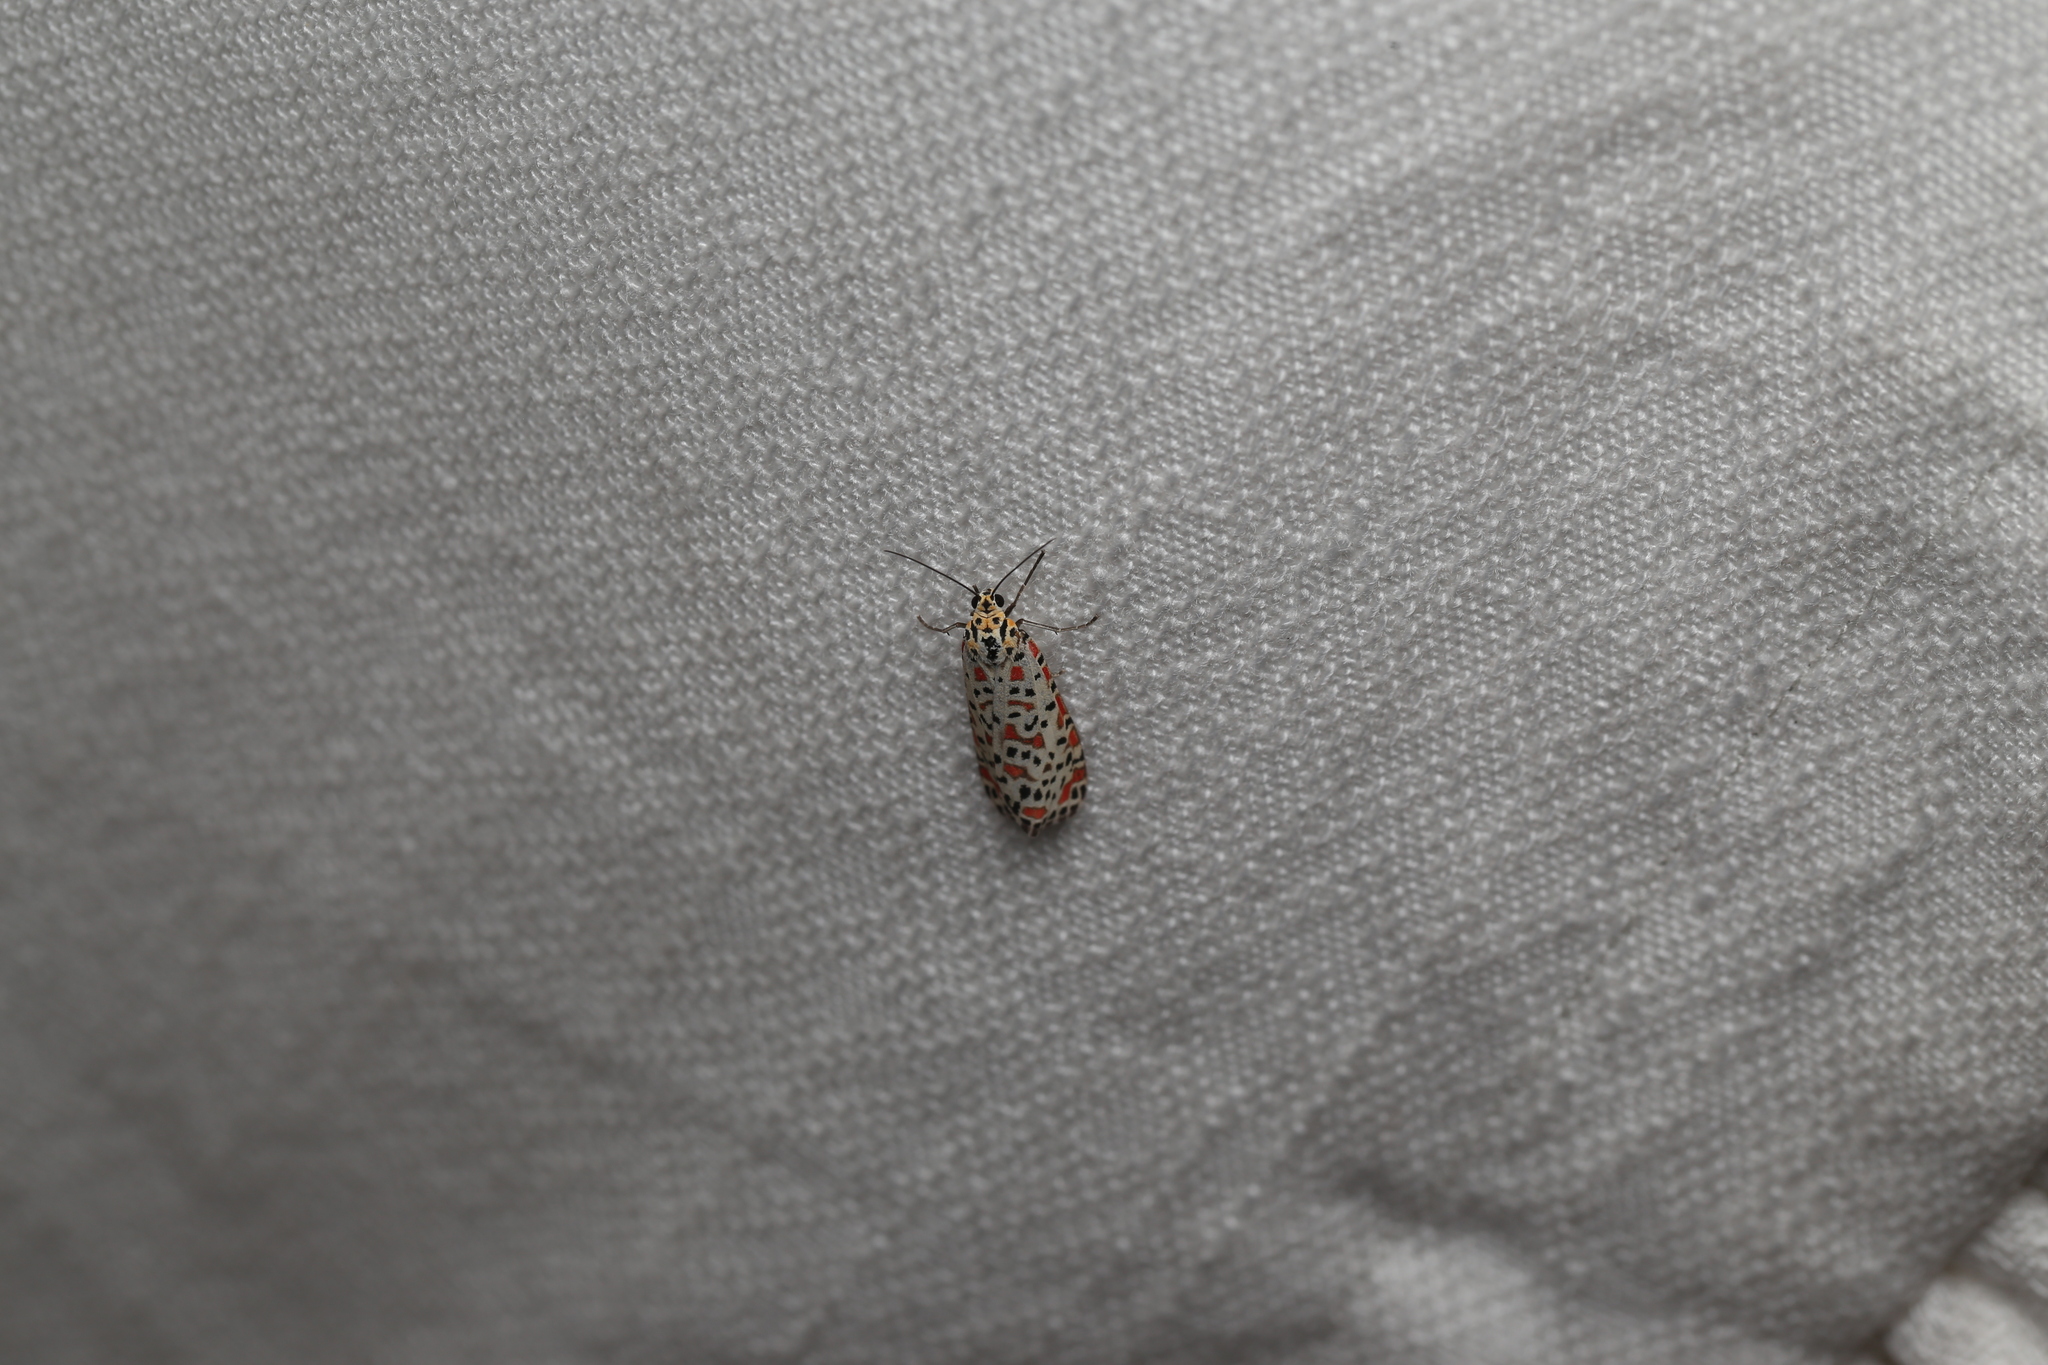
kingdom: Animalia
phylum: Arthropoda
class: Insecta
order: Lepidoptera
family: Erebidae
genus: Utetheisa
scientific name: Utetheisa lotrix
